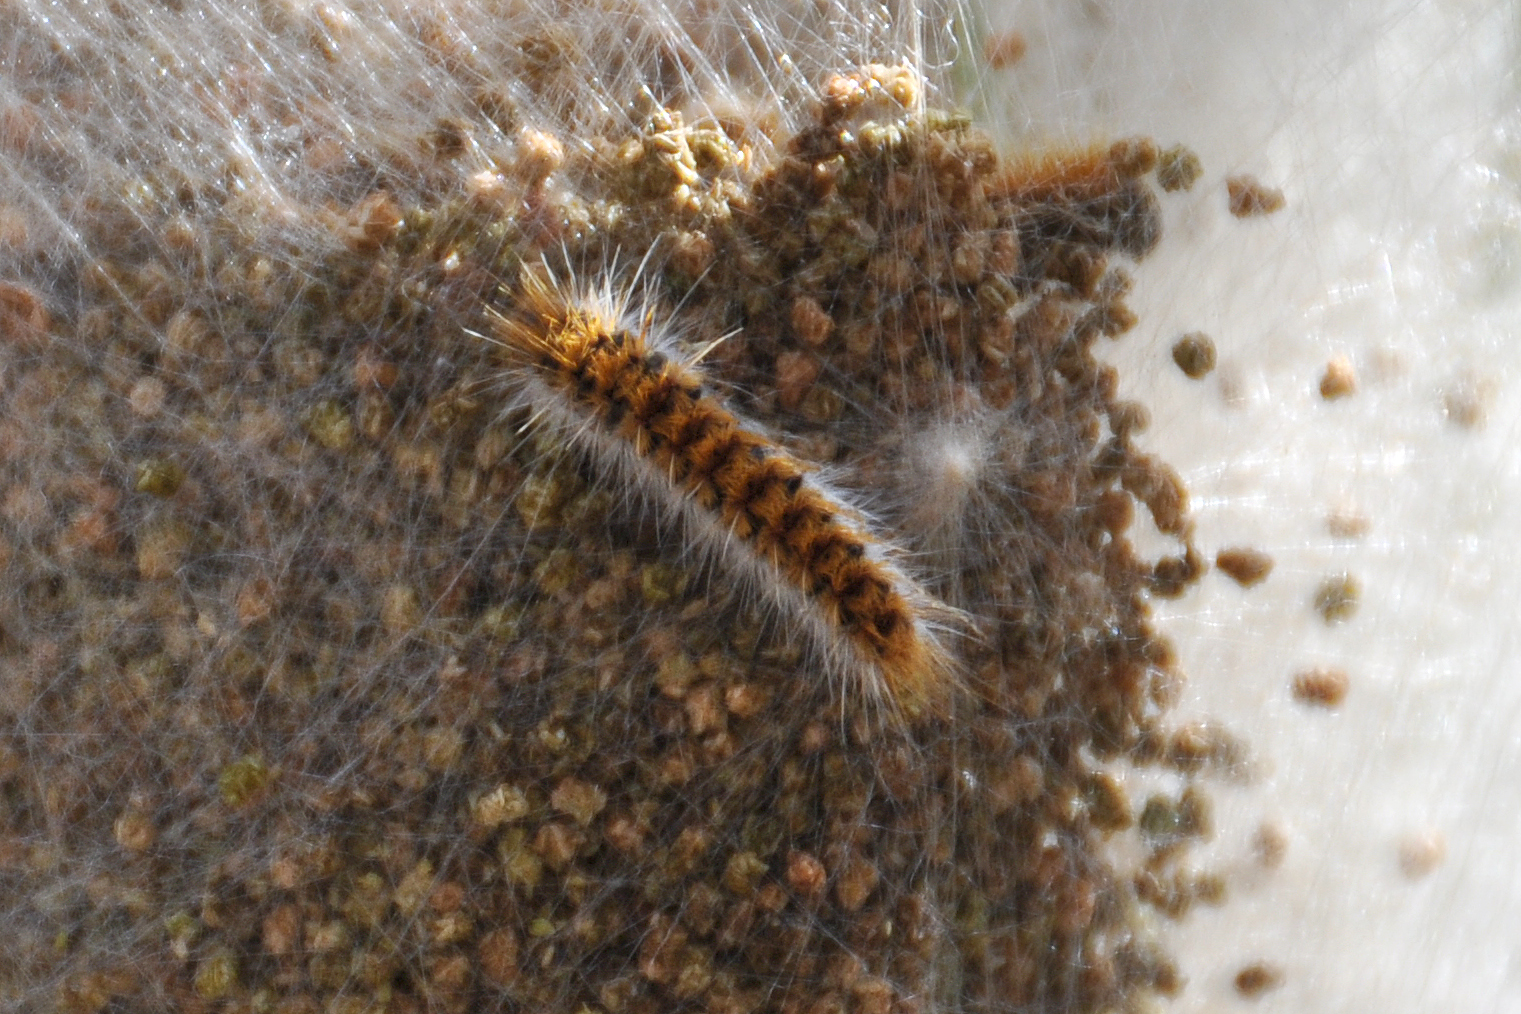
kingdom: Animalia
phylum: Arthropoda
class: Insecta
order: Lepidoptera
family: Notodontidae
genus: Thaumetopoea
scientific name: Thaumetopoea pityocampa
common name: Pine processionary
